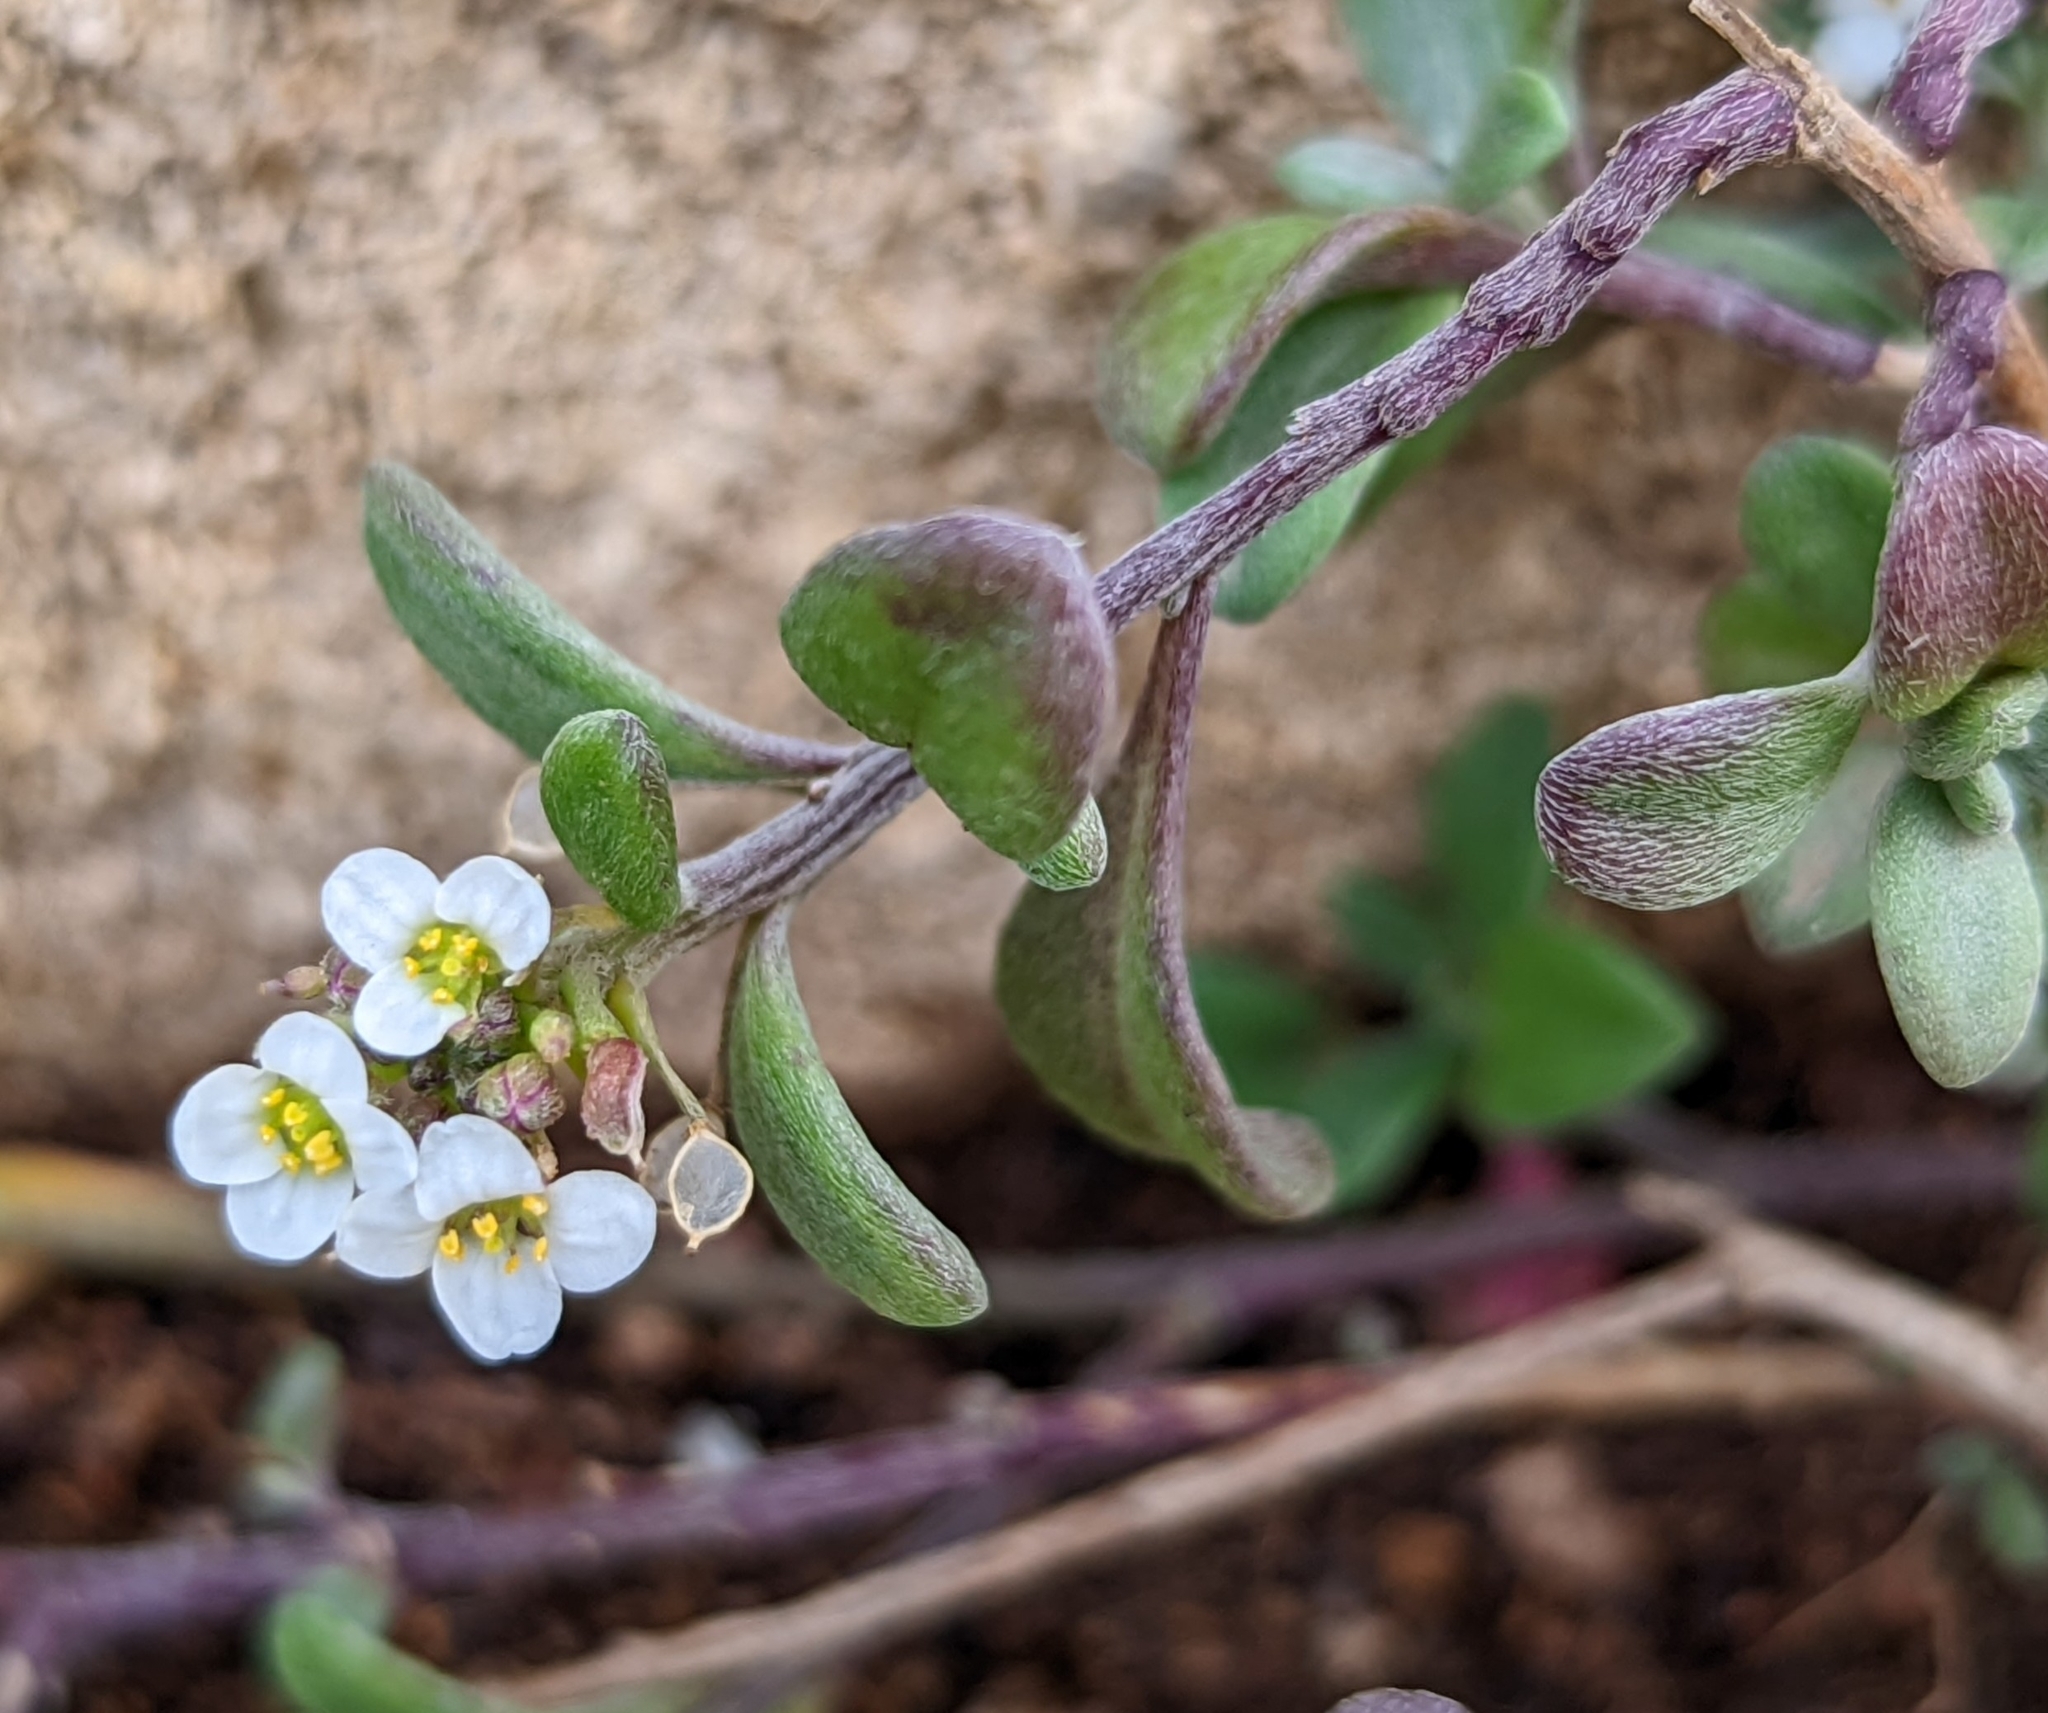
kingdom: Plantae
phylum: Tracheophyta
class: Magnoliopsida
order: Brassicales
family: Brassicaceae
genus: Lobularia
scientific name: Lobularia maritima
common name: Sweet alison
